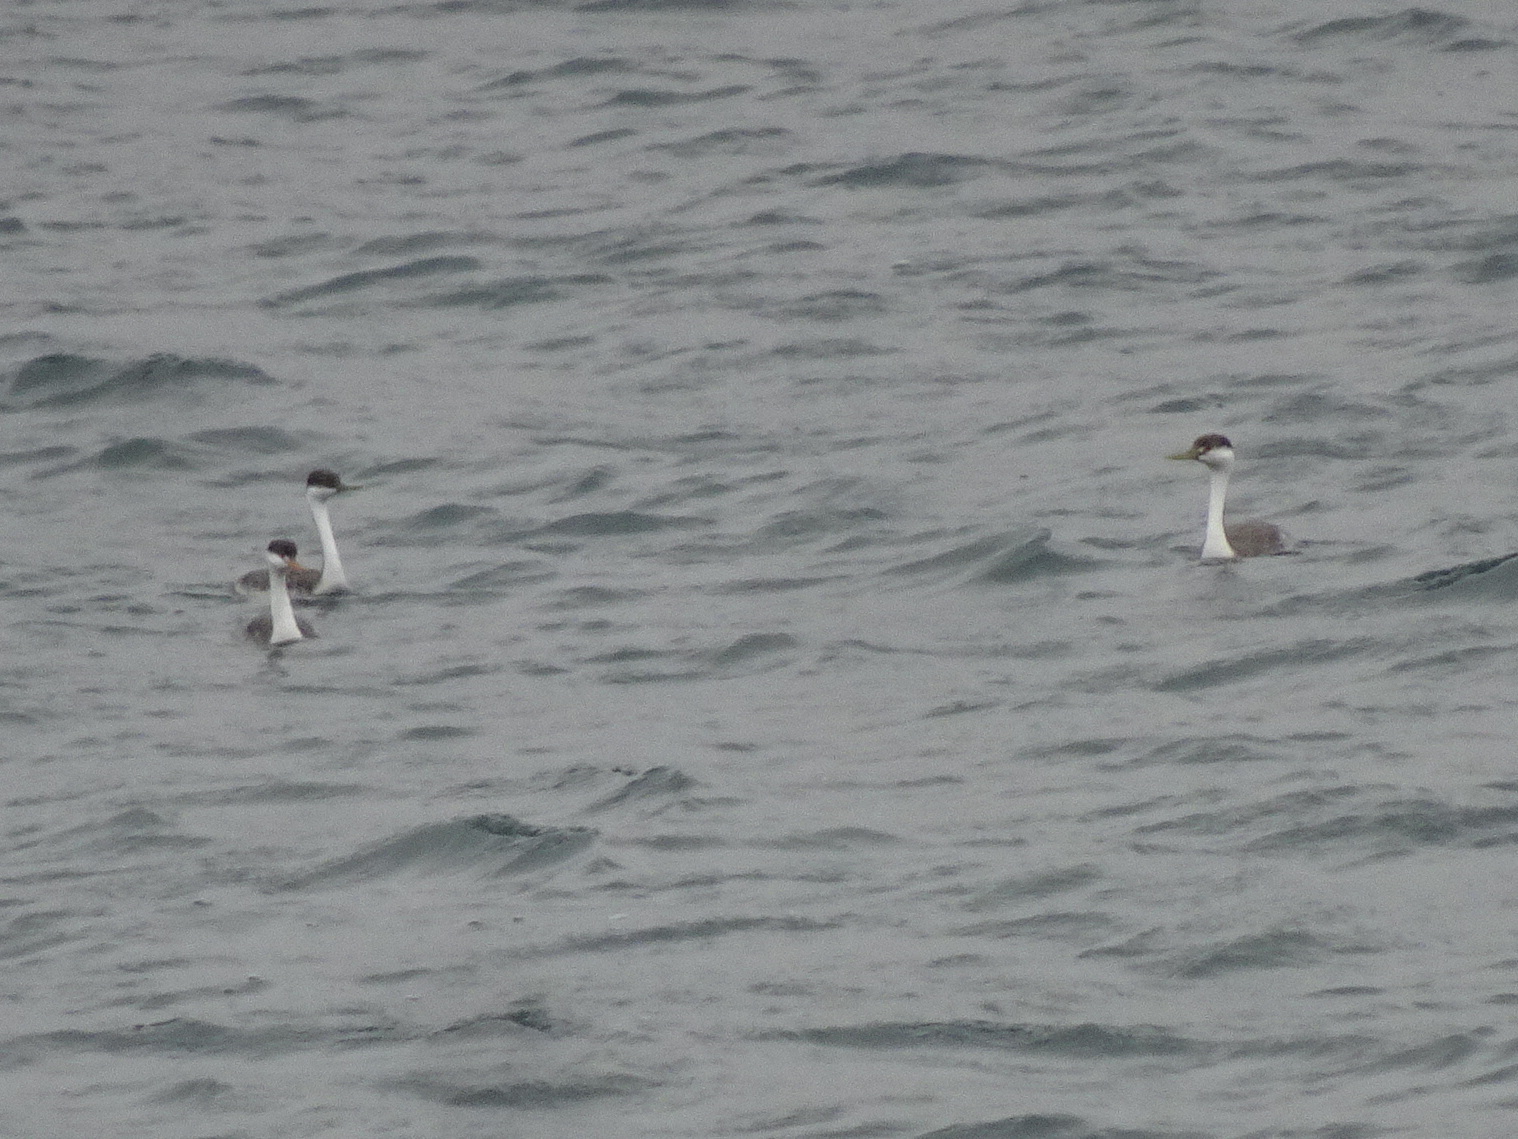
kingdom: Animalia
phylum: Chordata
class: Aves
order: Podicipediformes
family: Podicipedidae
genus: Aechmophorus
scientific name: Aechmophorus occidentalis
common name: Western grebe
